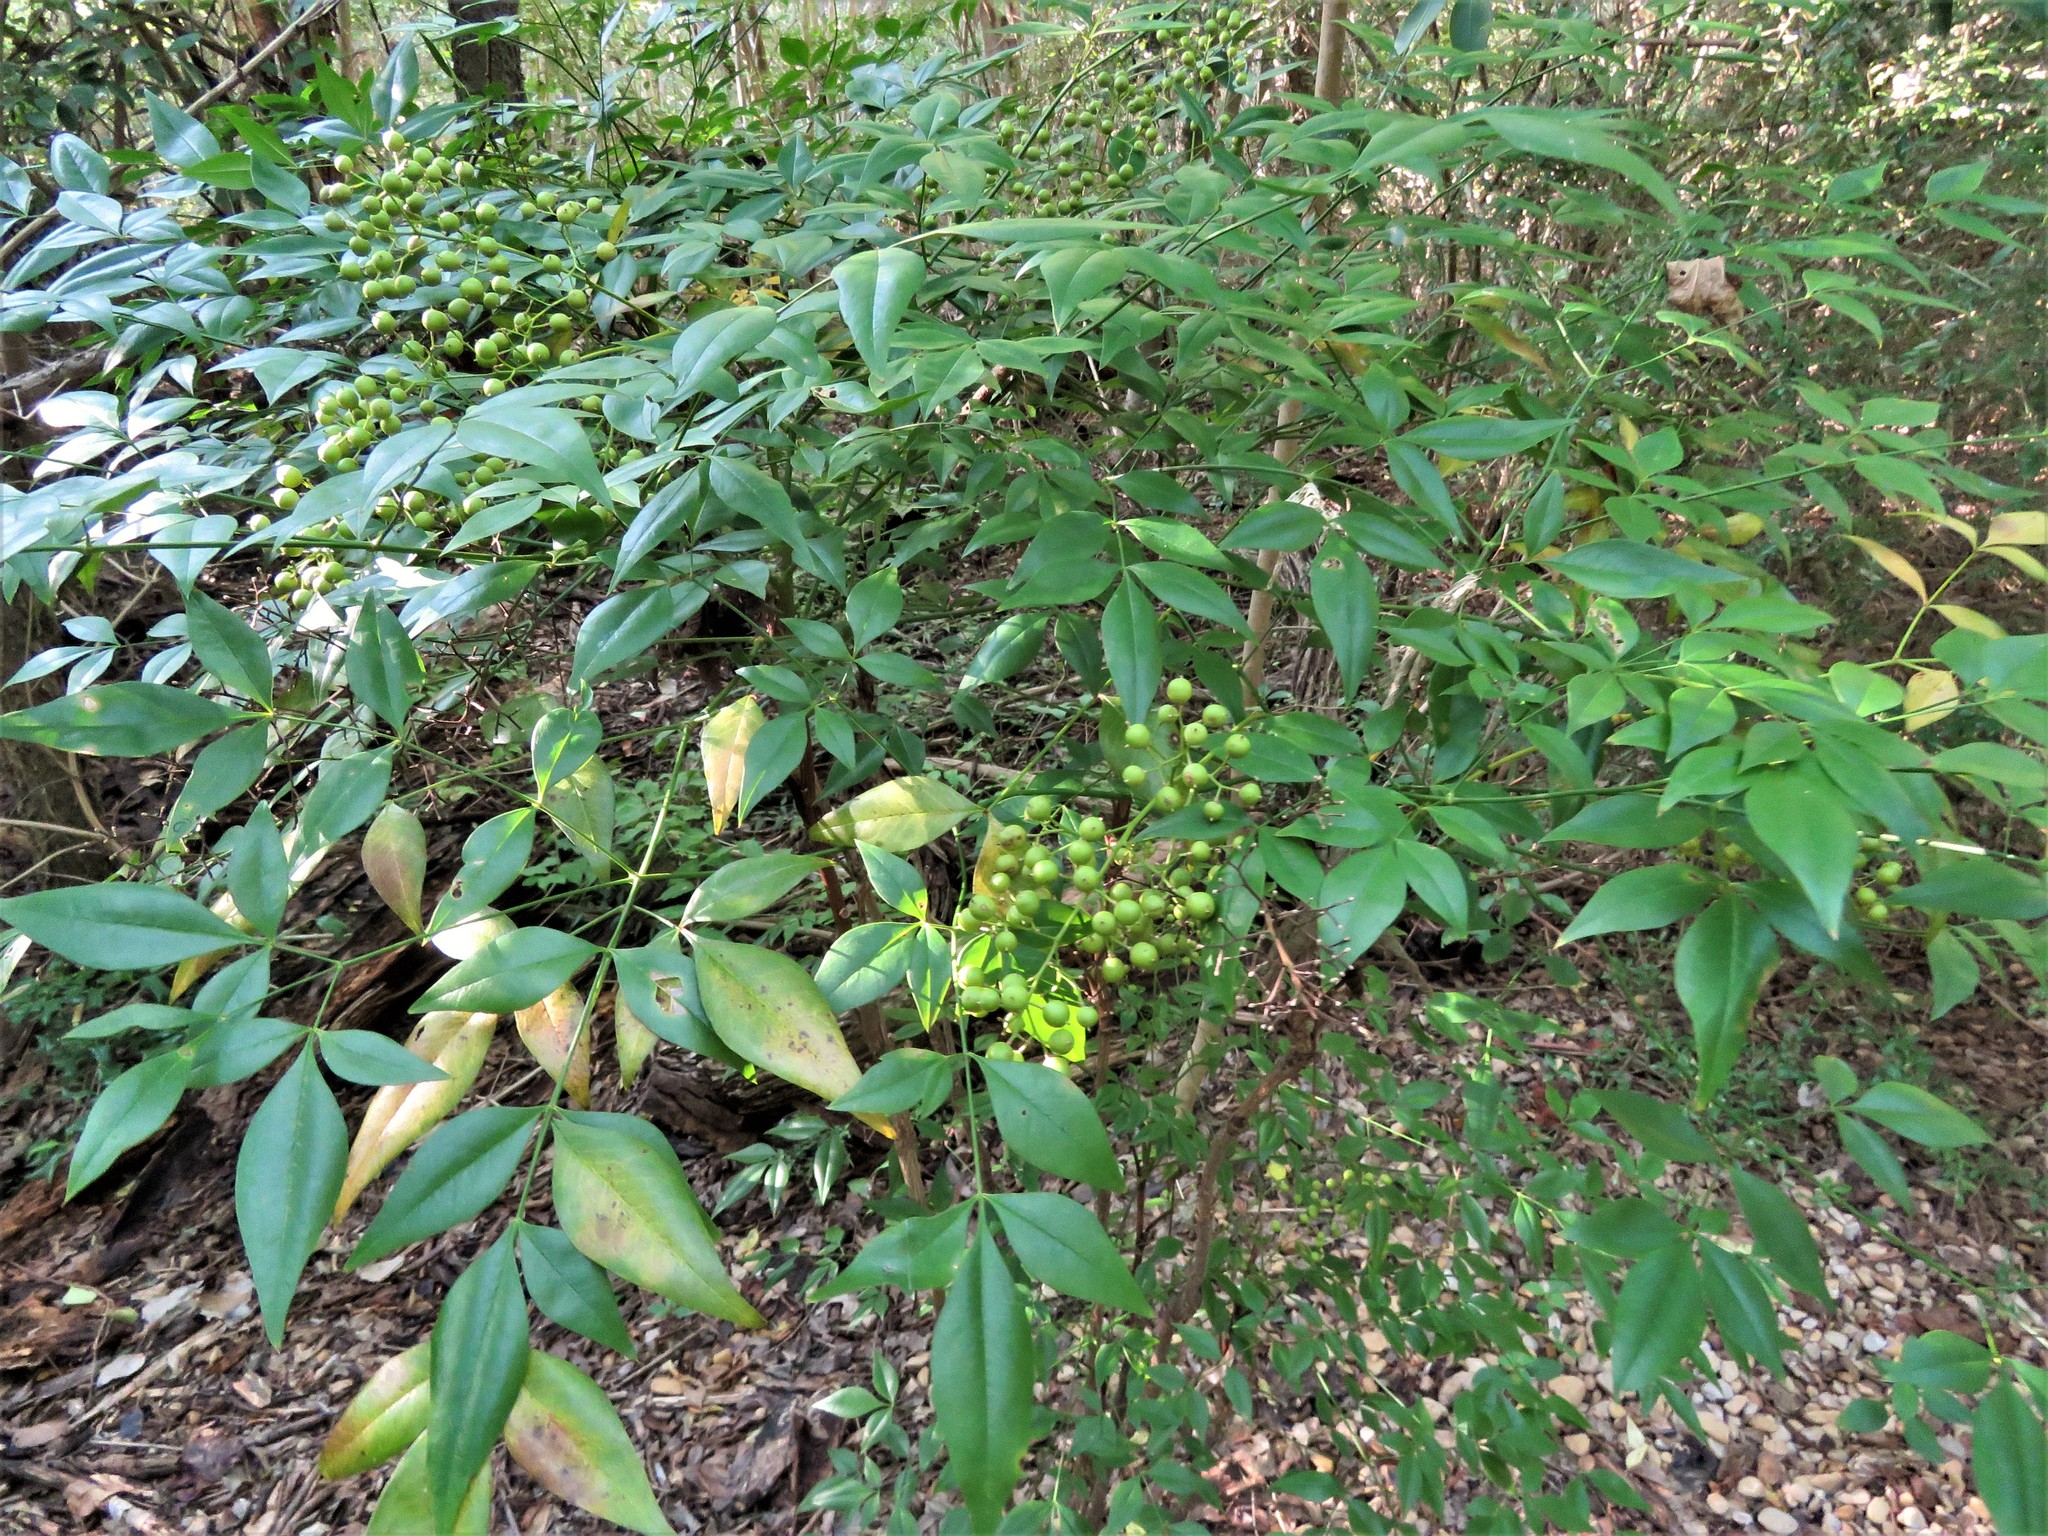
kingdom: Plantae
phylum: Tracheophyta
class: Magnoliopsida
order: Ranunculales
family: Berberidaceae
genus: Nandina
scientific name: Nandina domestica
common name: Sacred bamboo
